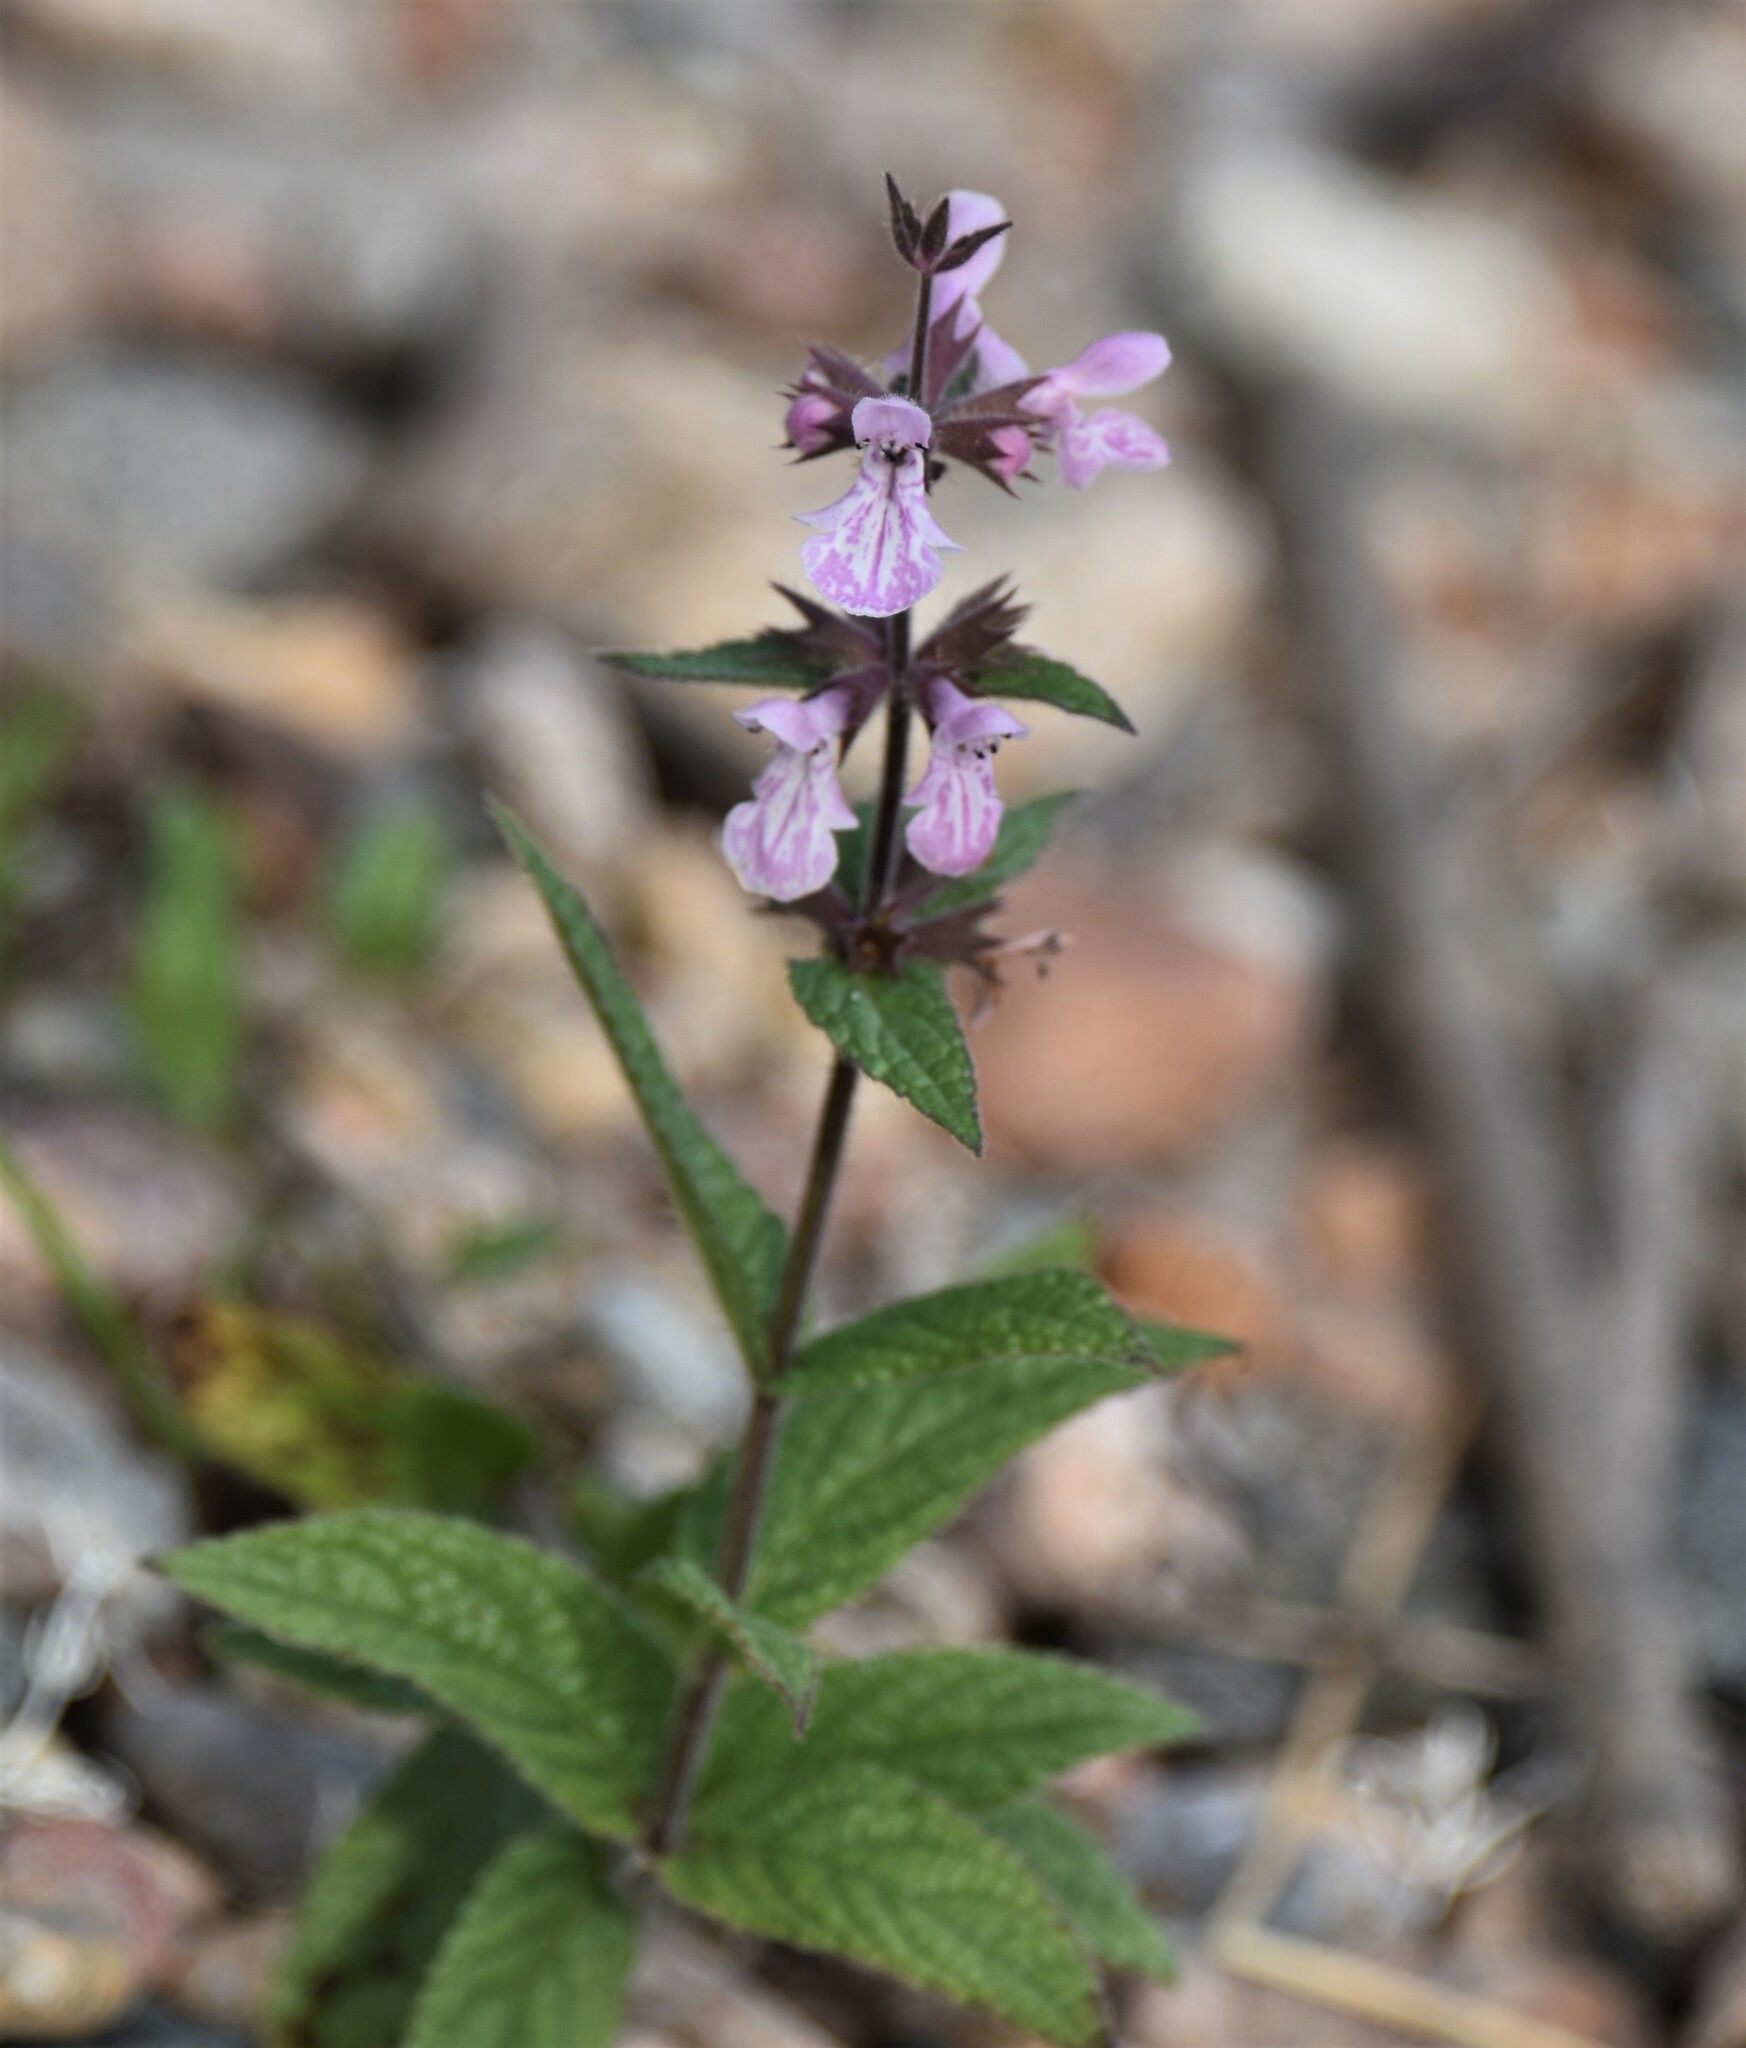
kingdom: Plantae
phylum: Tracheophyta
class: Magnoliopsida
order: Lamiales
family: Lamiaceae
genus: Stachys
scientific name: Stachys pilosa
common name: Hairy hedge-nettle
